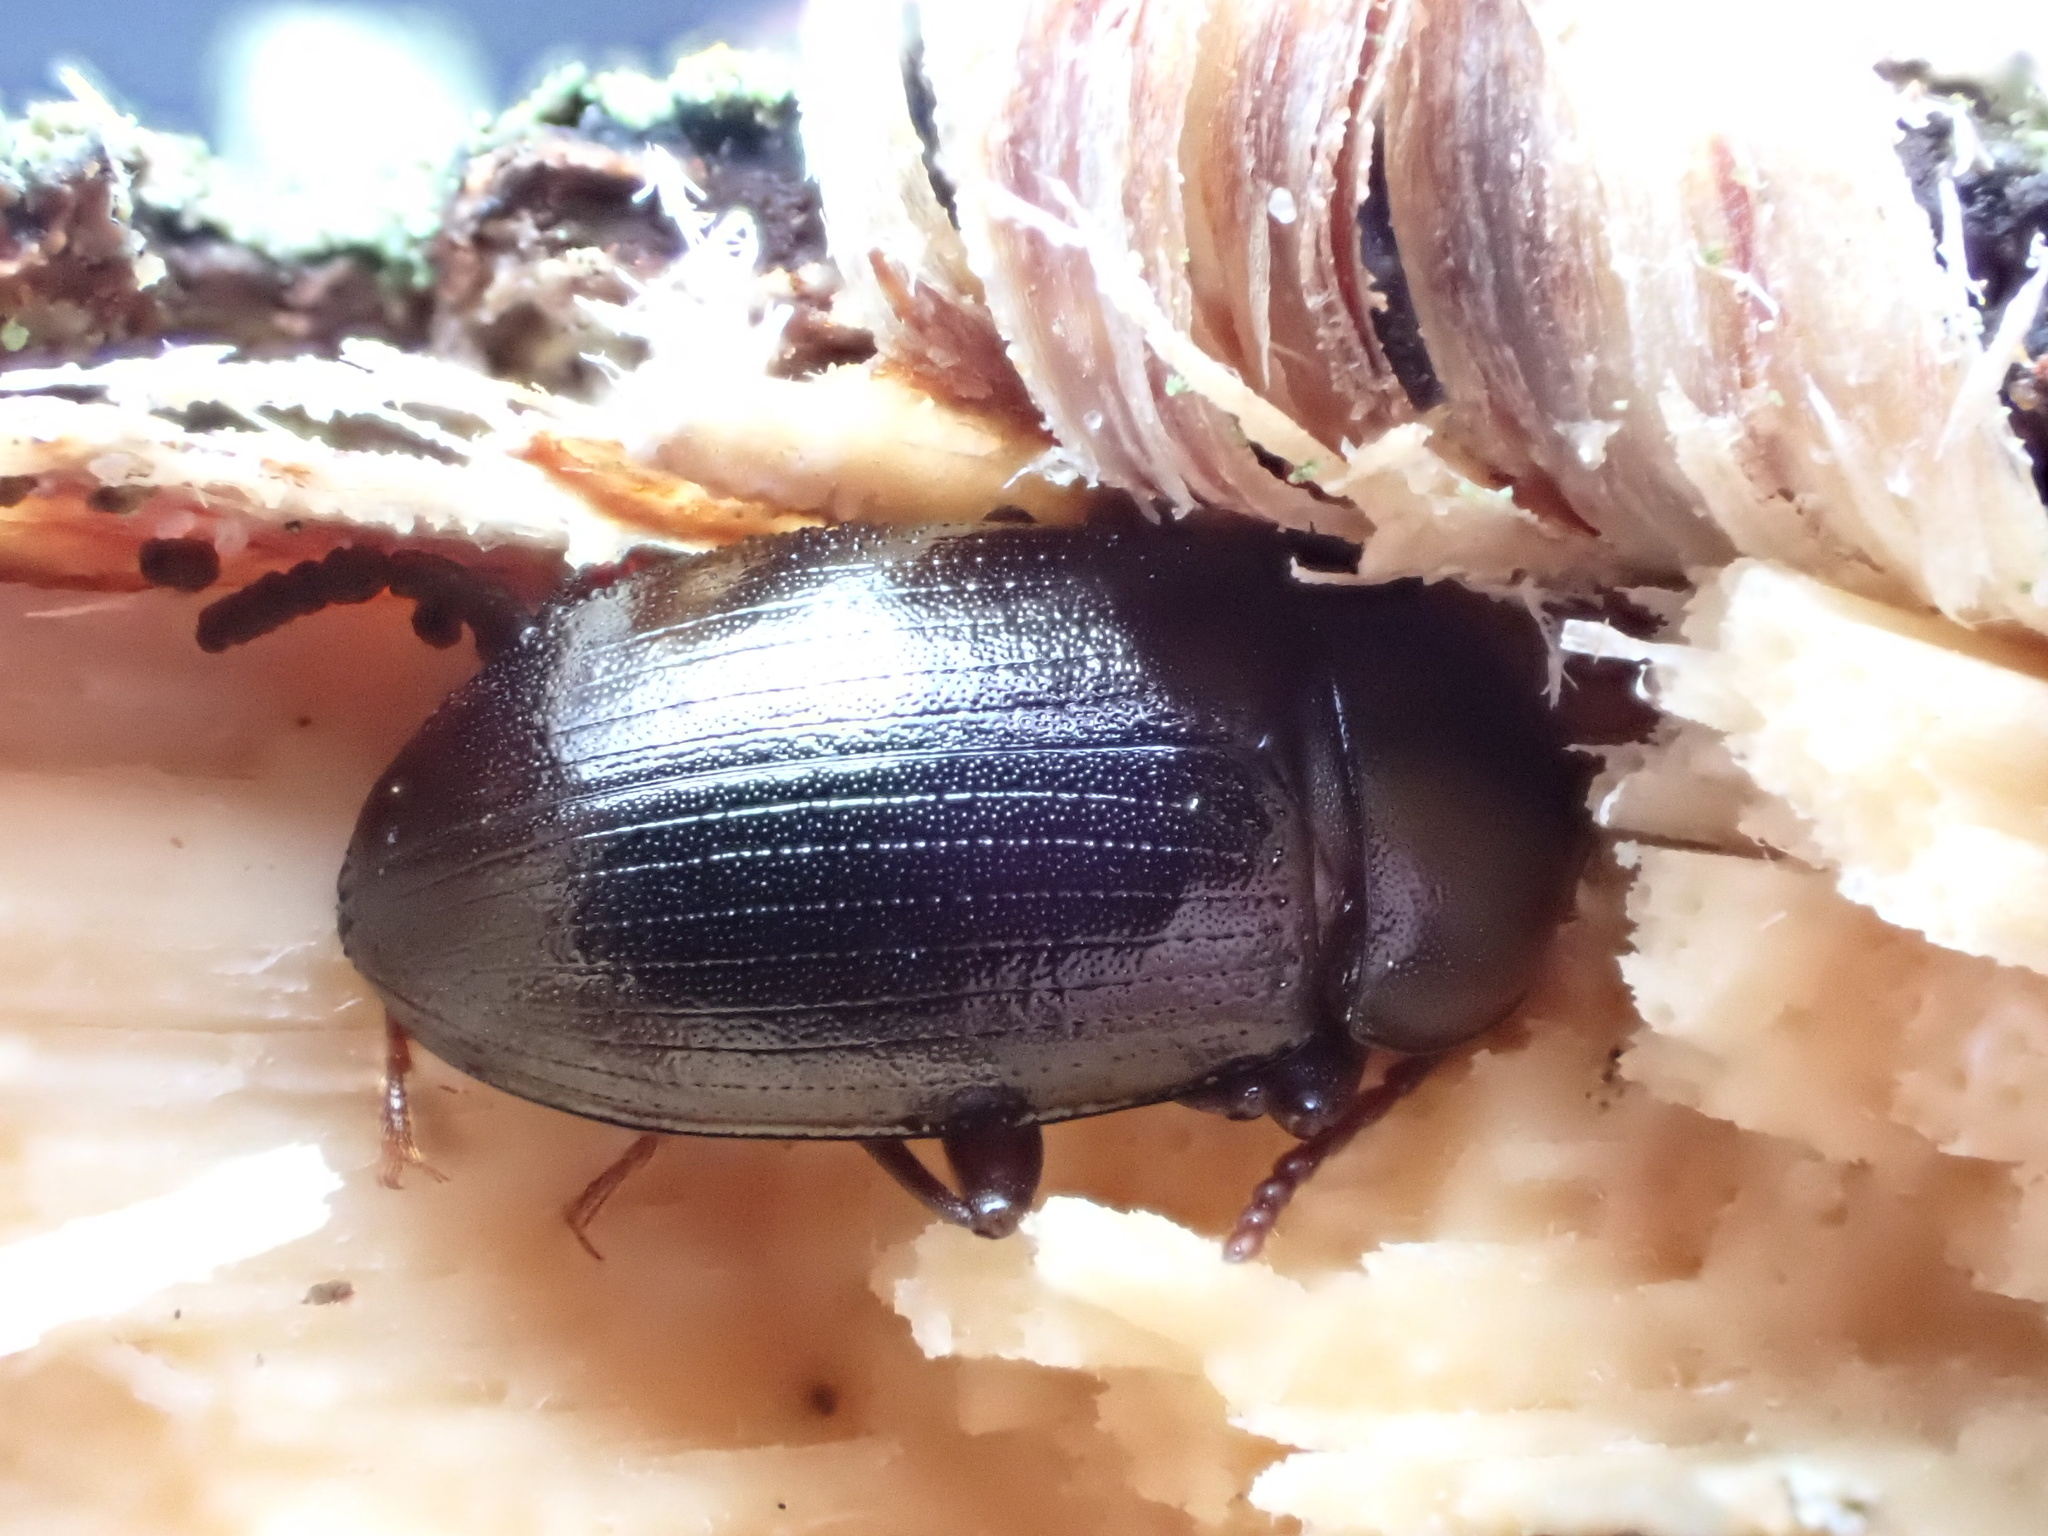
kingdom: Animalia
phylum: Arthropoda
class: Insecta
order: Coleoptera
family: Tenebrionidae
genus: Nalassus
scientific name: Nalassus laevioctostriatus
